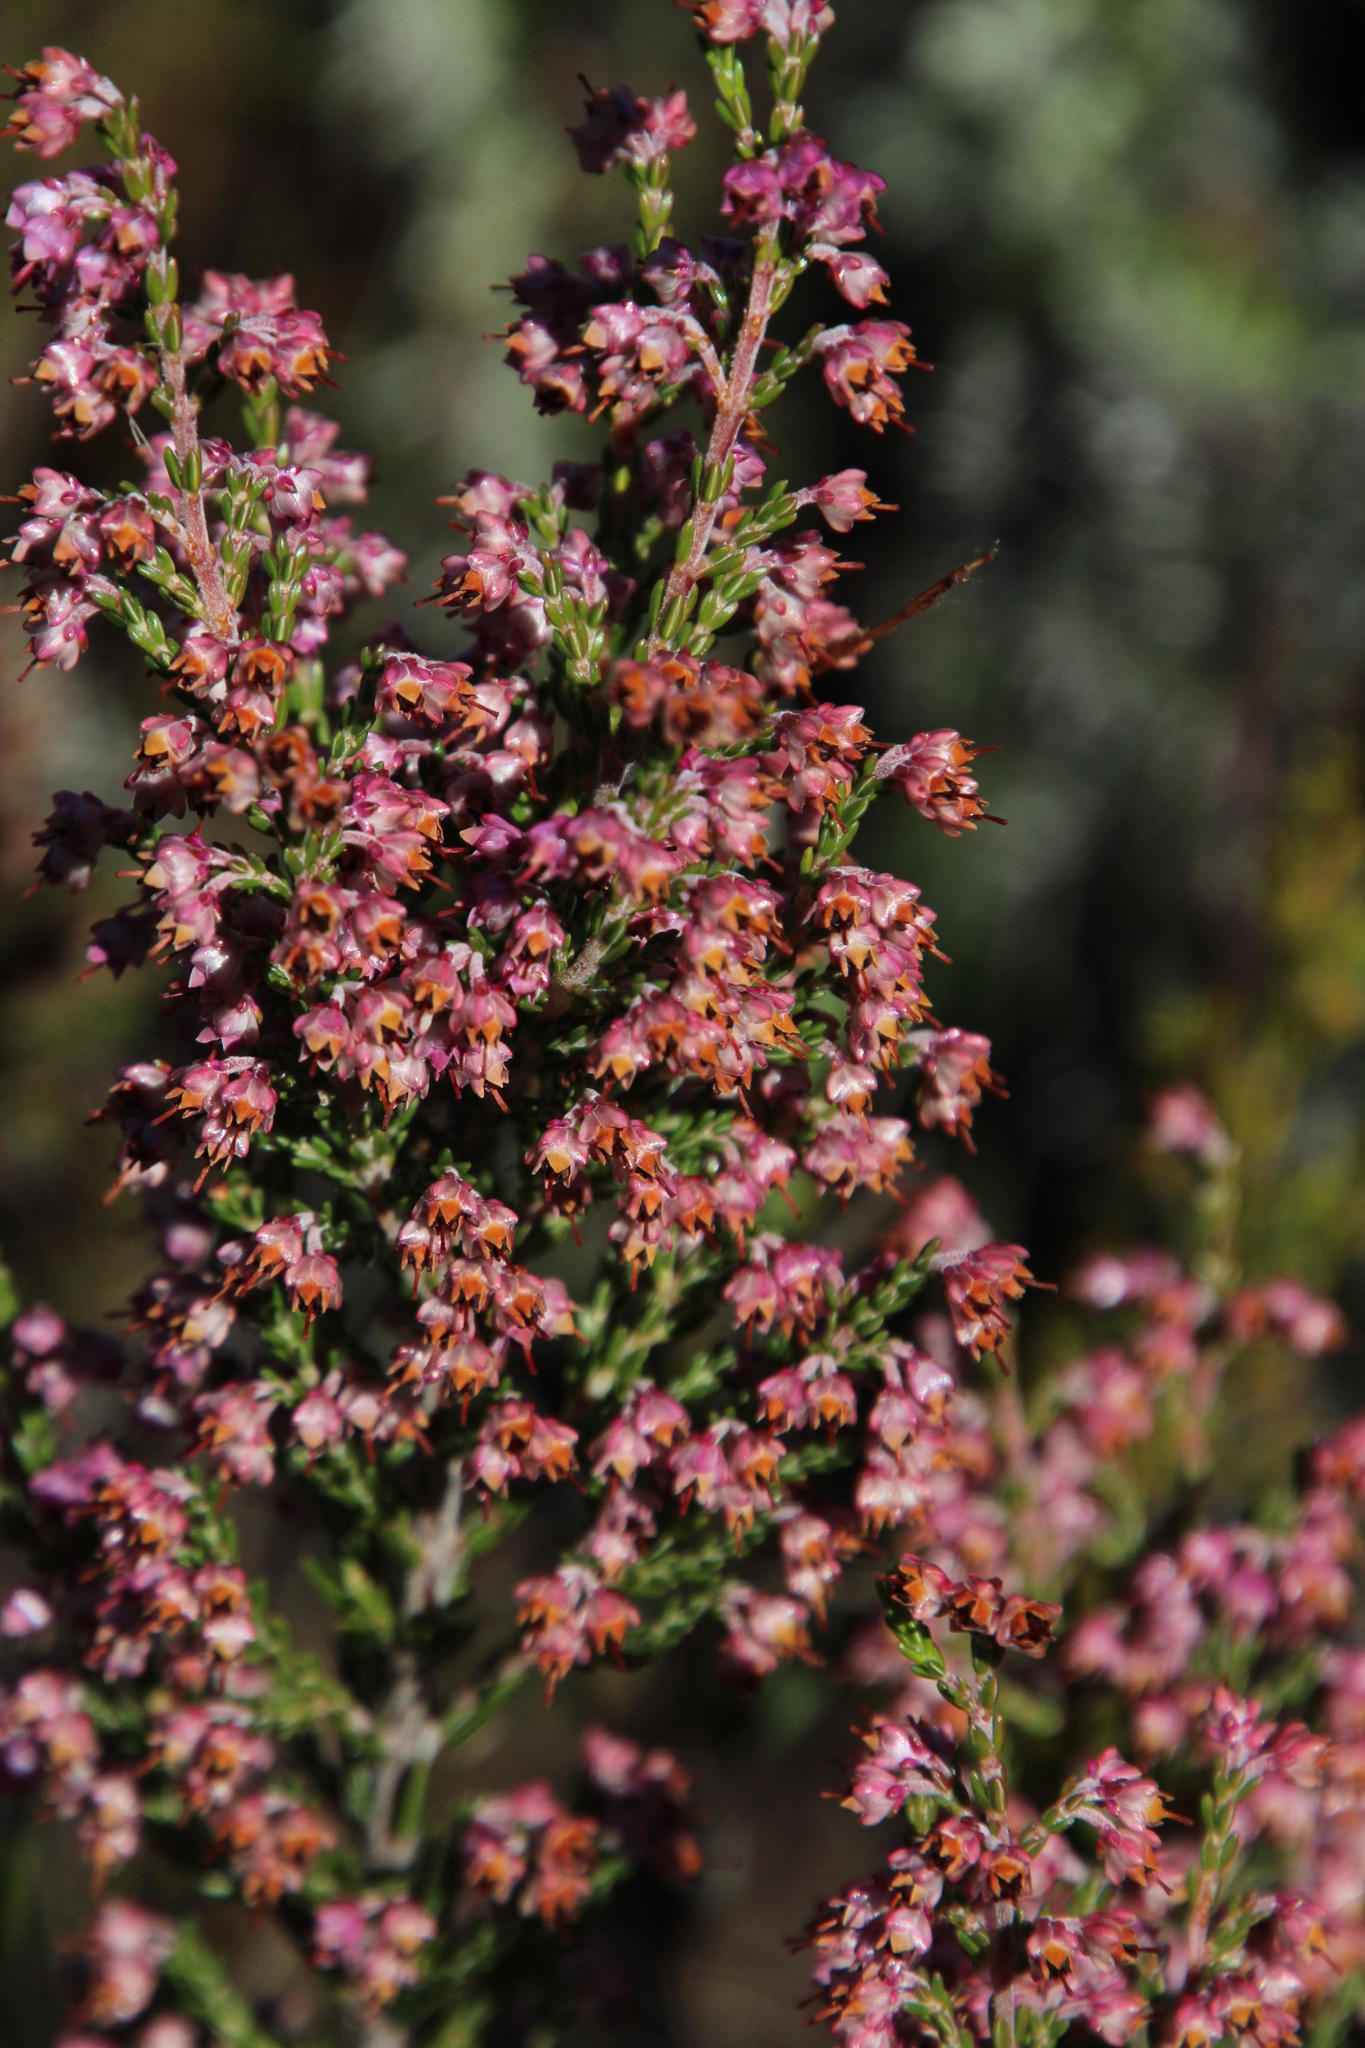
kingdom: Plantae
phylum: Tracheophyta
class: Magnoliopsida
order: Ericales
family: Ericaceae
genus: Erica
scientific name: Erica lucida
